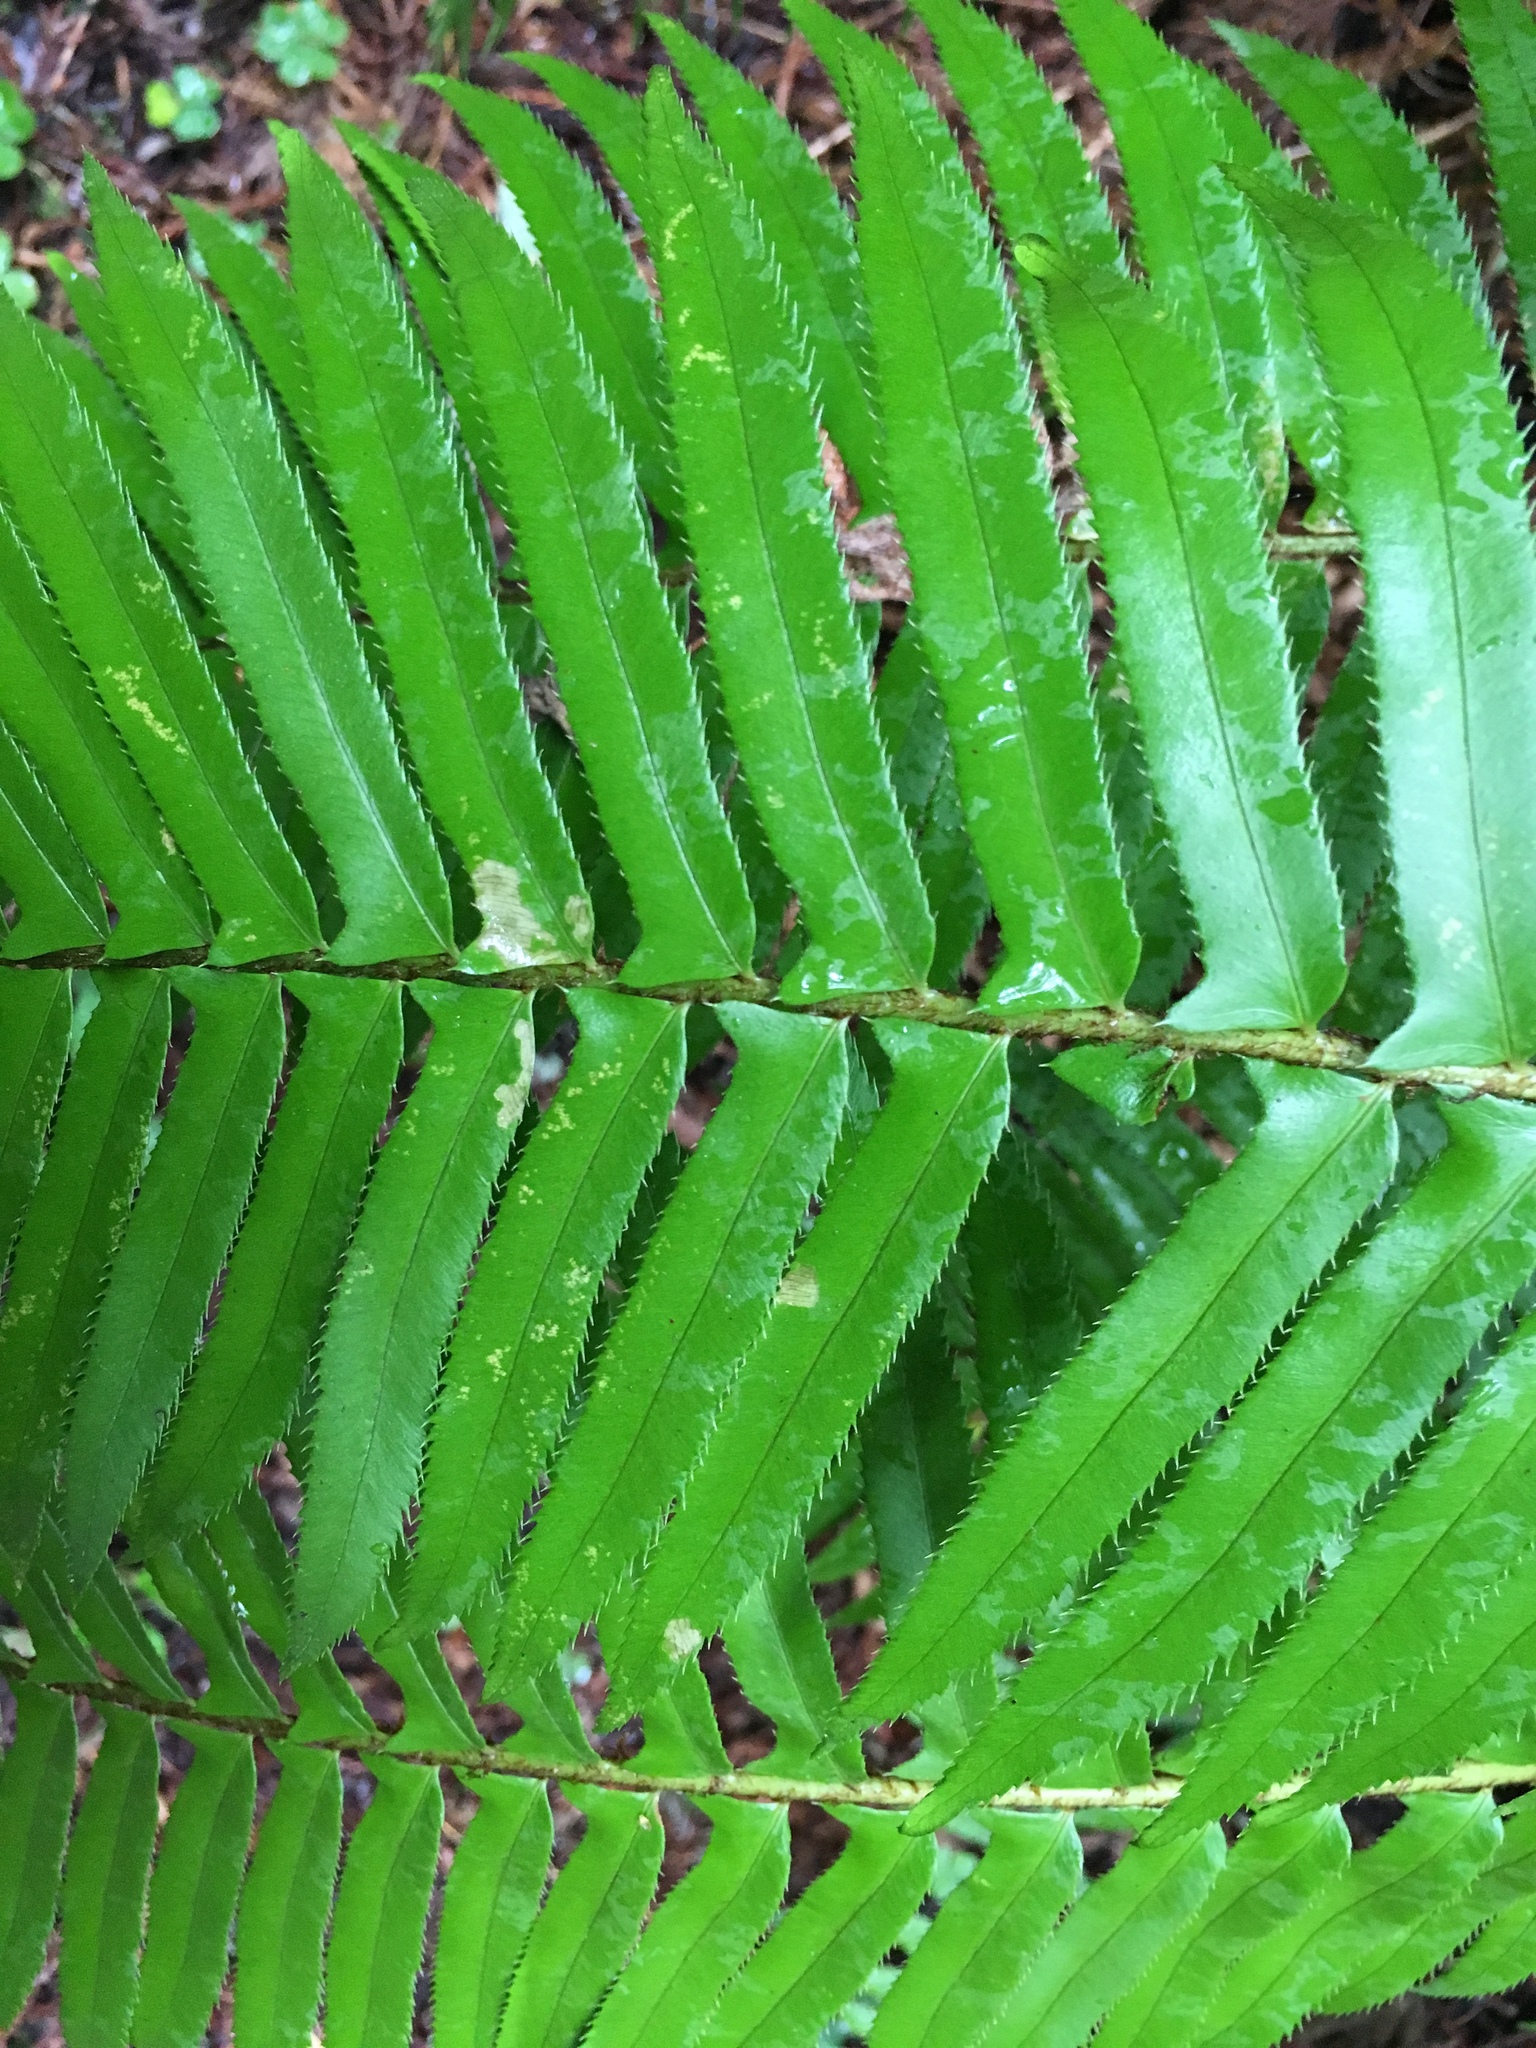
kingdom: Plantae
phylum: Tracheophyta
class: Polypodiopsida
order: Polypodiales
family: Dryopteridaceae
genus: Polystichum
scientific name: Polystichum munitum
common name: Western sword-fern
